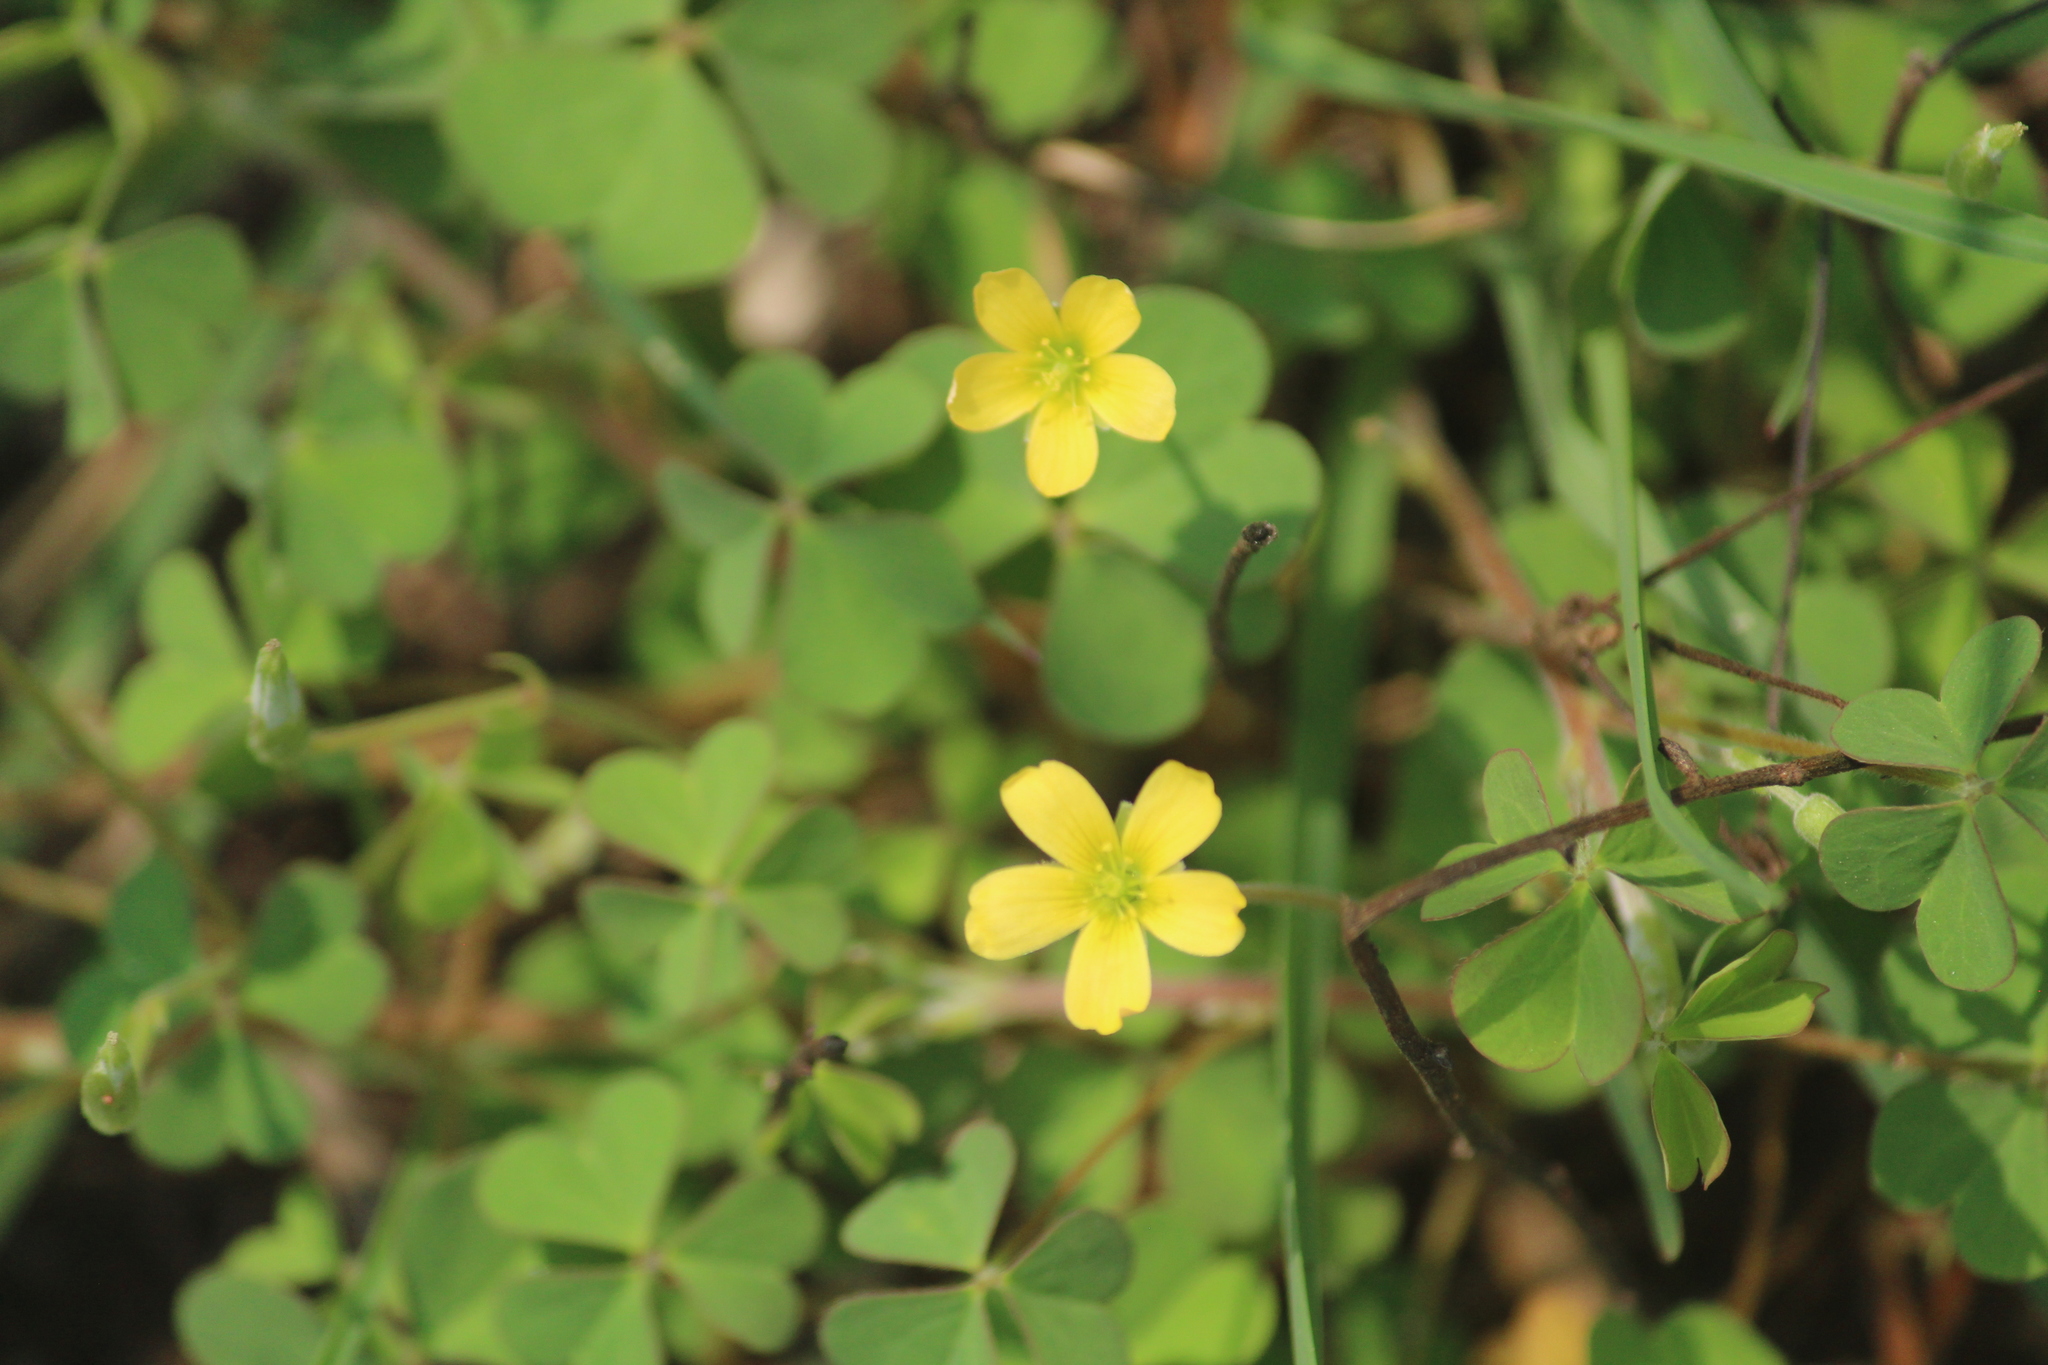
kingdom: Plantae
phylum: Tracheophyta
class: Magnoliopsida
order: Oxalidales
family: Oxalidaceae
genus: Oxalis
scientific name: Oxalis corniculata
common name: Procumbent yellow-sorrel
